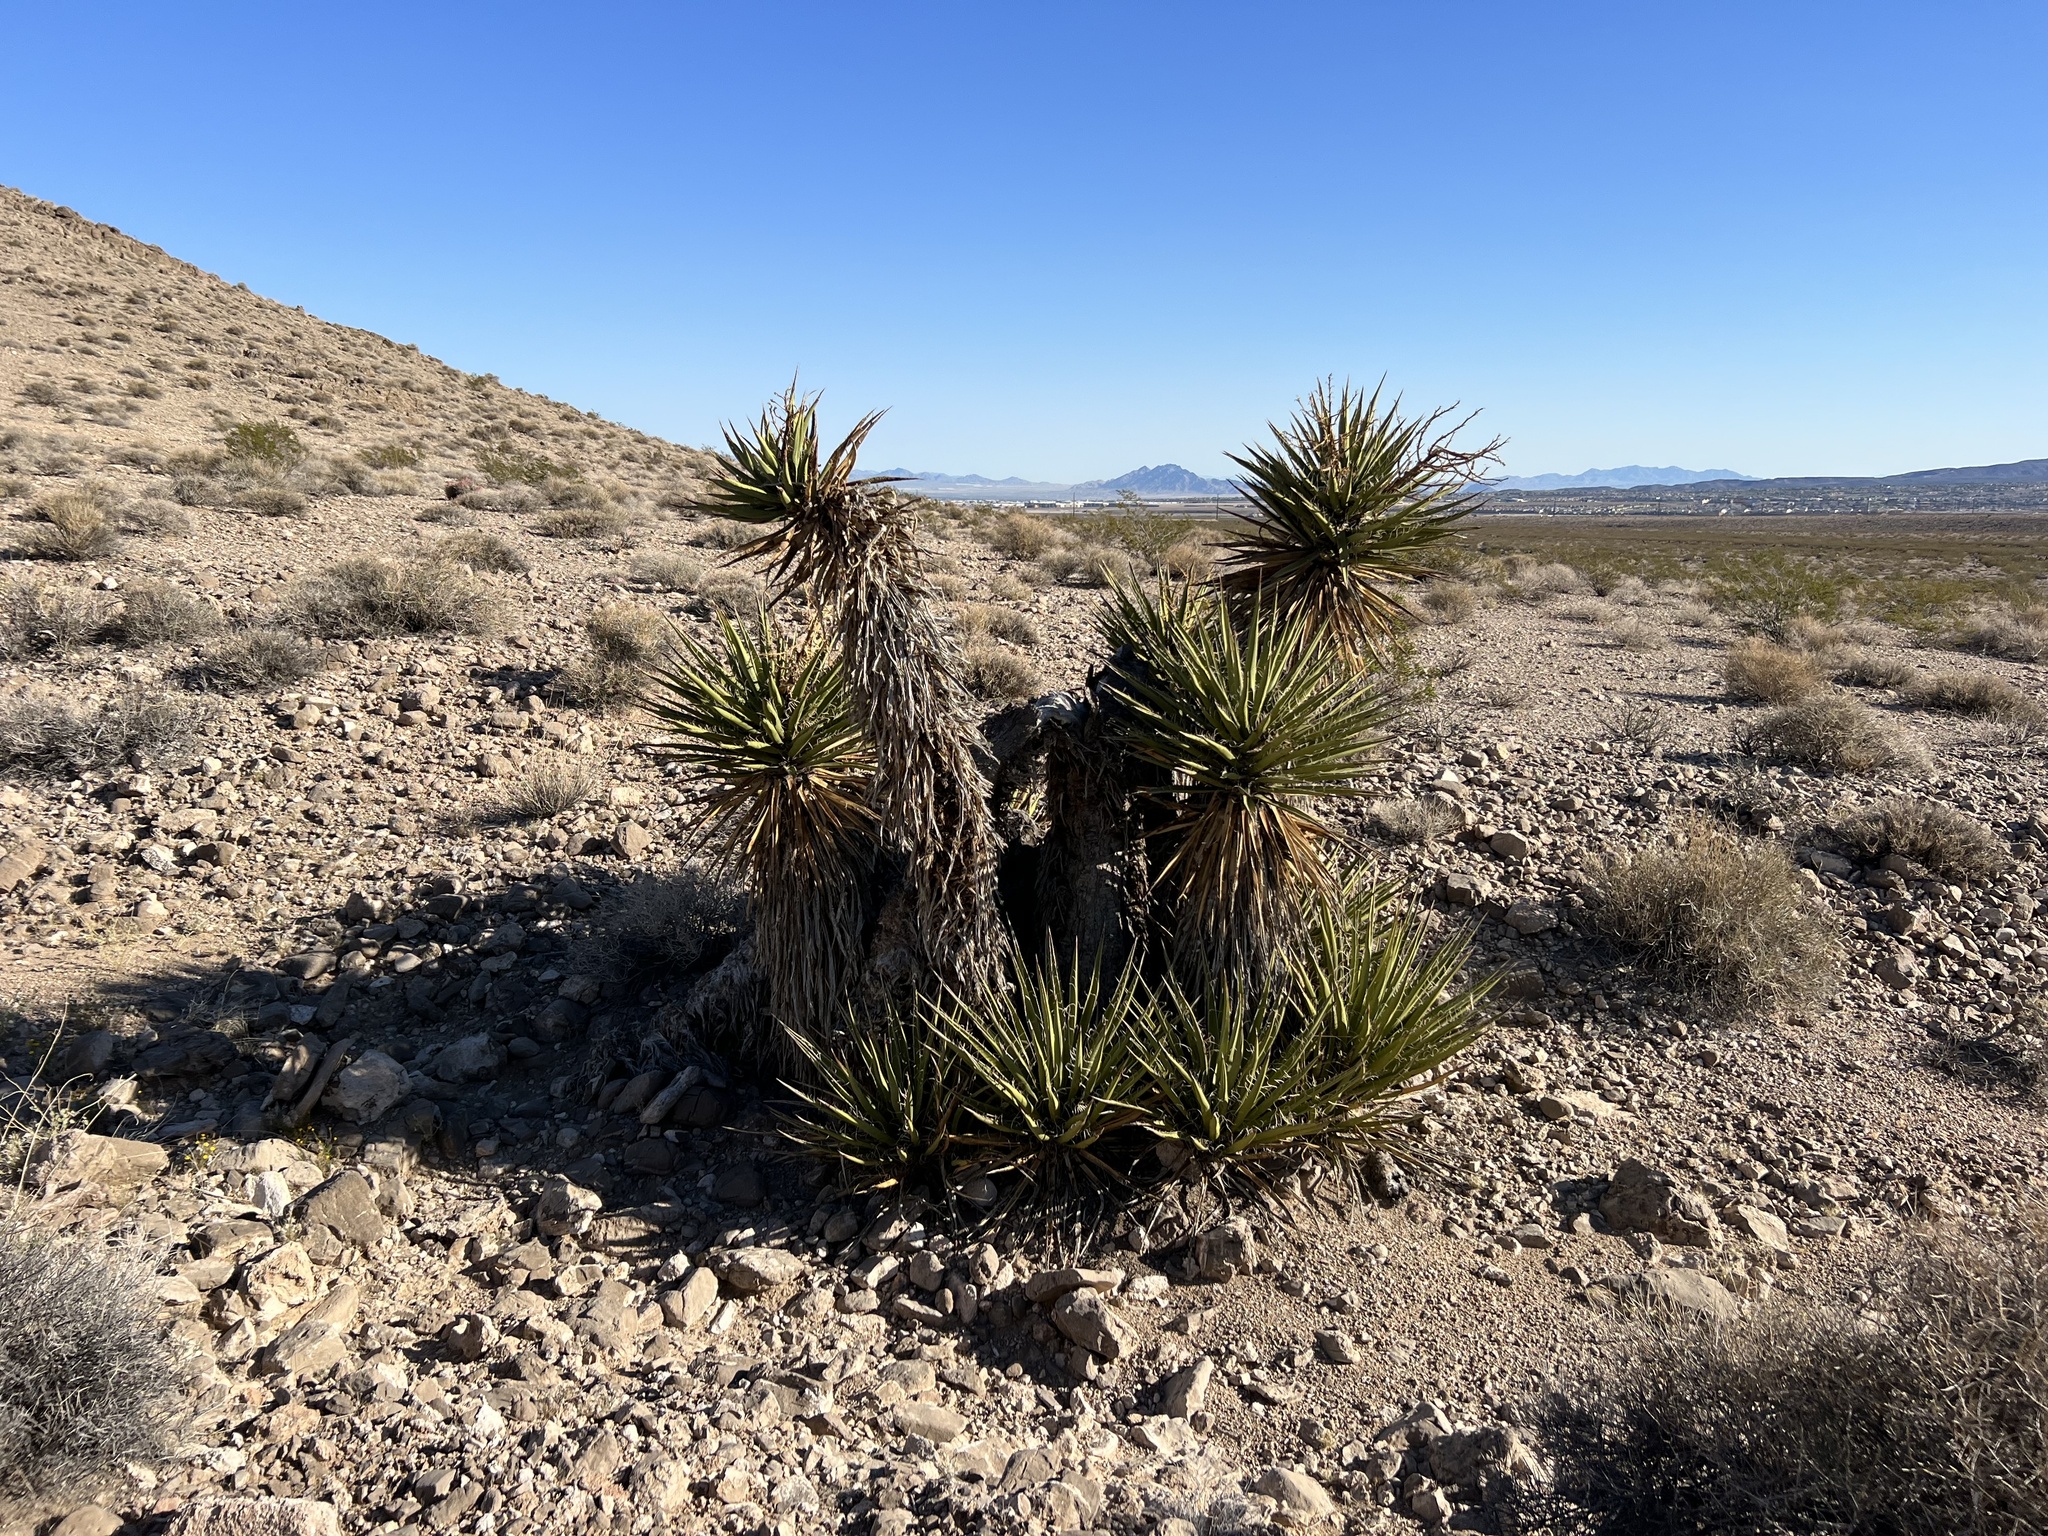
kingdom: Plantae
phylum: Tracheophyta
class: Liliopsida
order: Asparagales
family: Asparagaceae
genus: Yucca
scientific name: Yucca schidigera
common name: Mojave yucca
